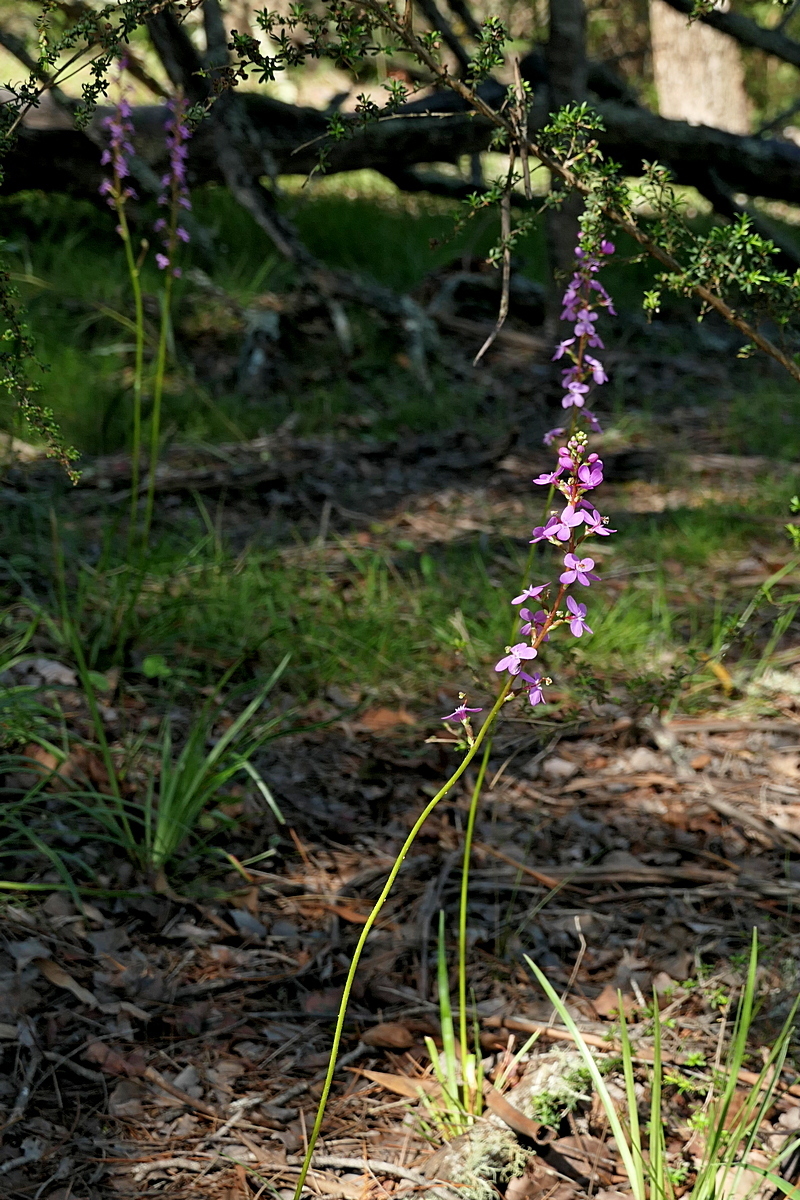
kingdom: Plantae
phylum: Tracheophyta
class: Magnoliopsida
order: Asterales
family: Stylidiaceae
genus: Stylidium
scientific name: Stylidium armeria
